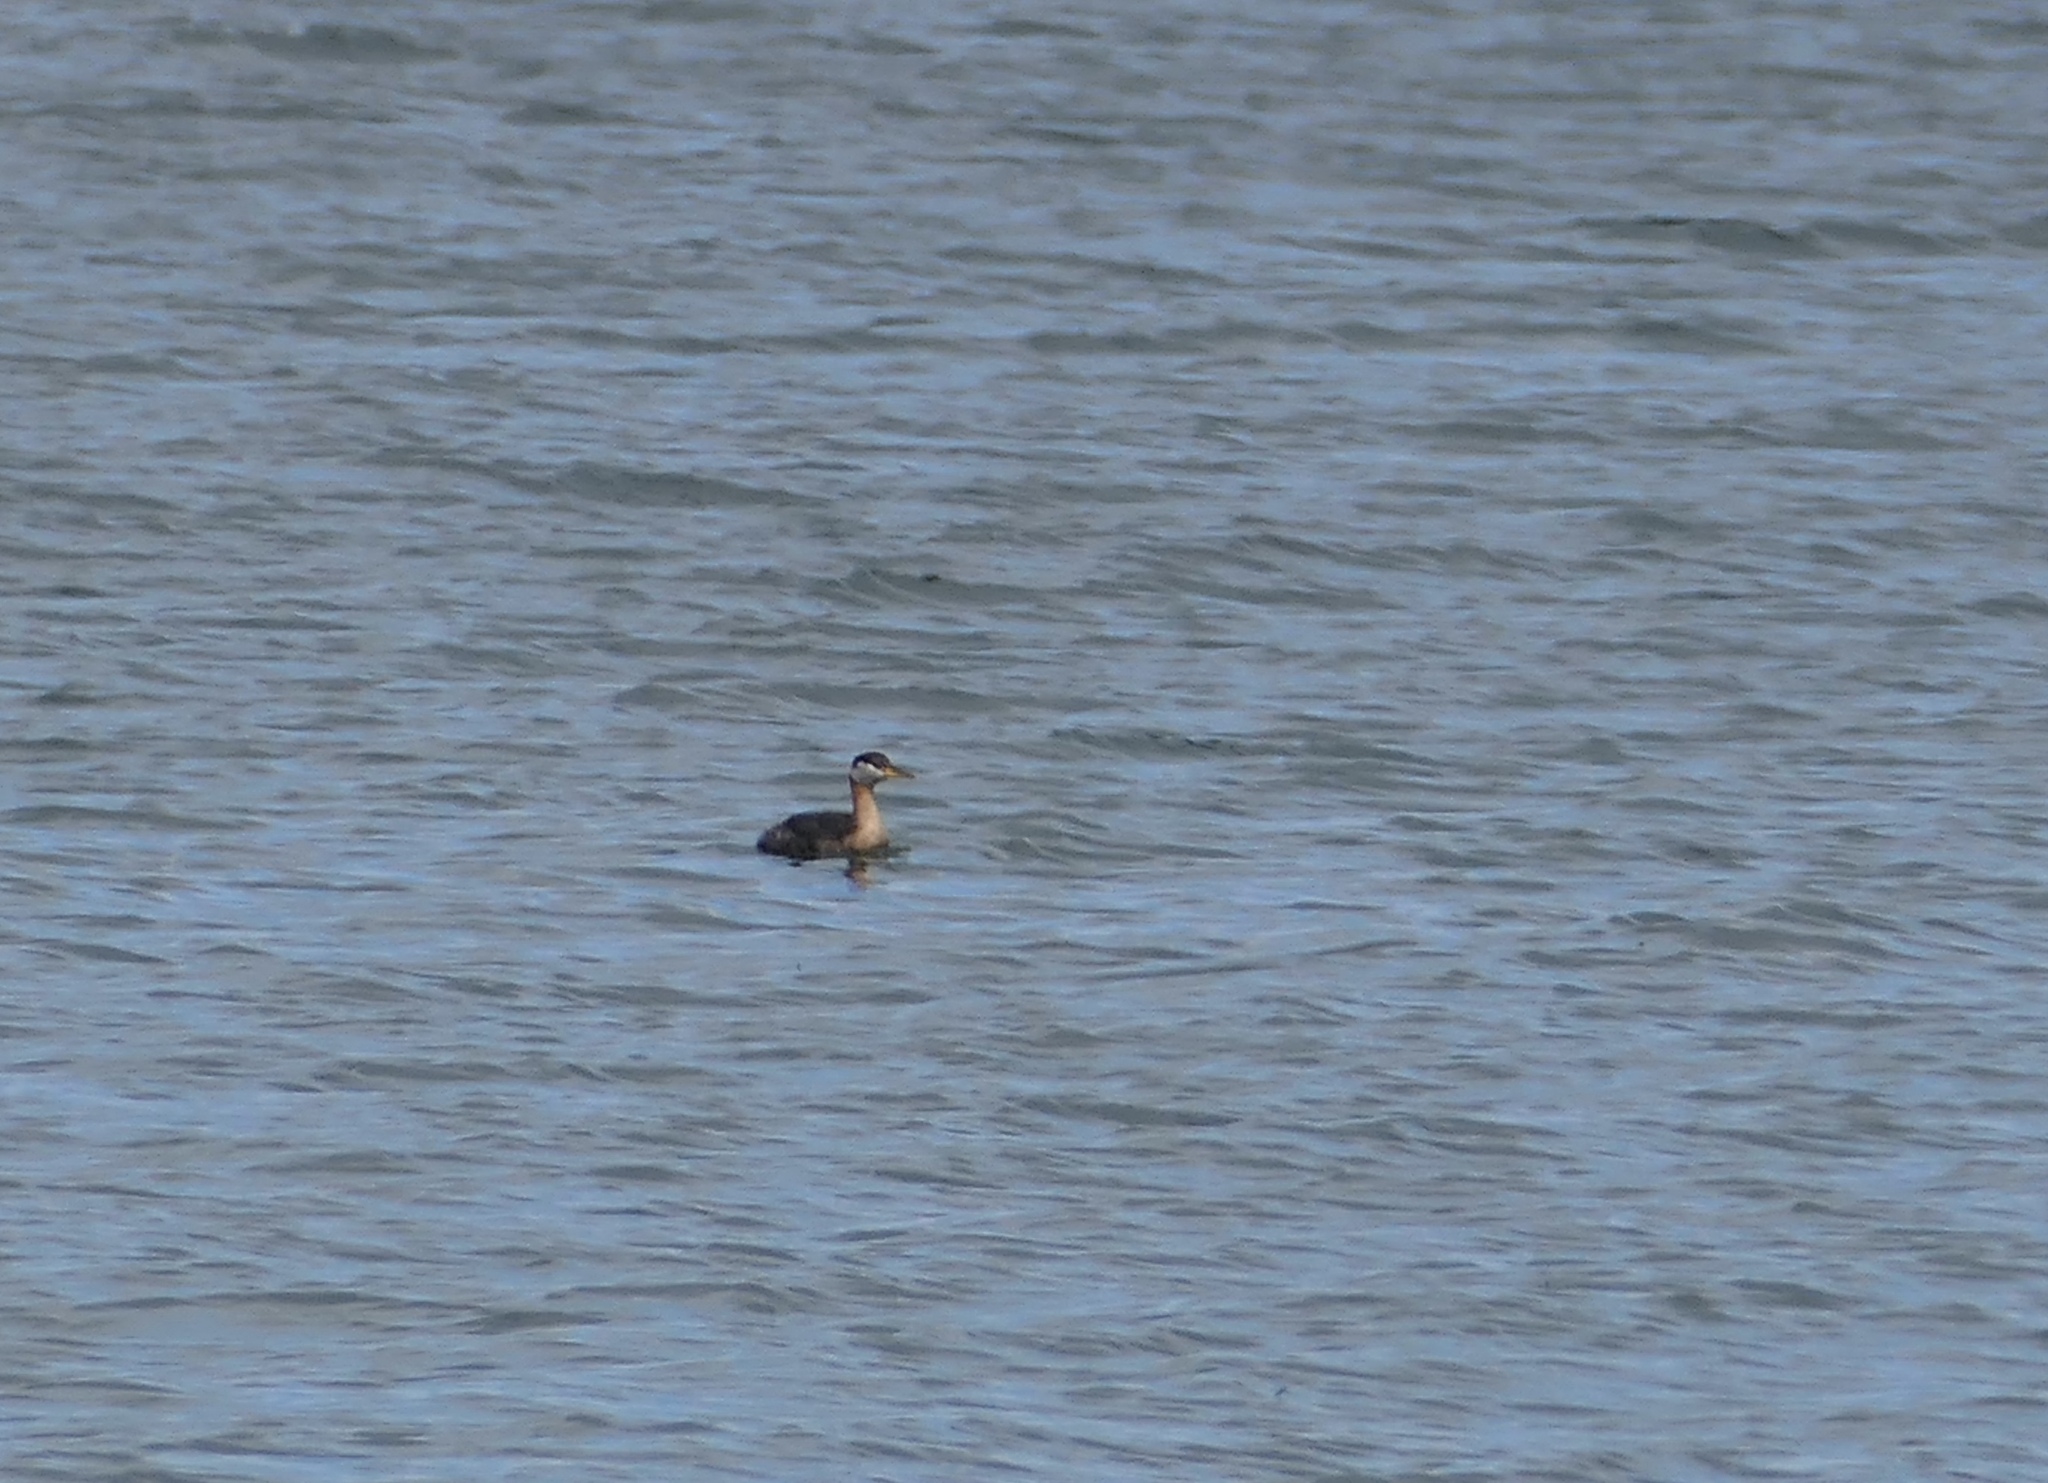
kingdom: Animalia
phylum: Chordata
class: Aves
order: Podicipediformes
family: Podicipedidae
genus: Podiceps
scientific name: Podiceps grisegena
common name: Red-necked grebe
